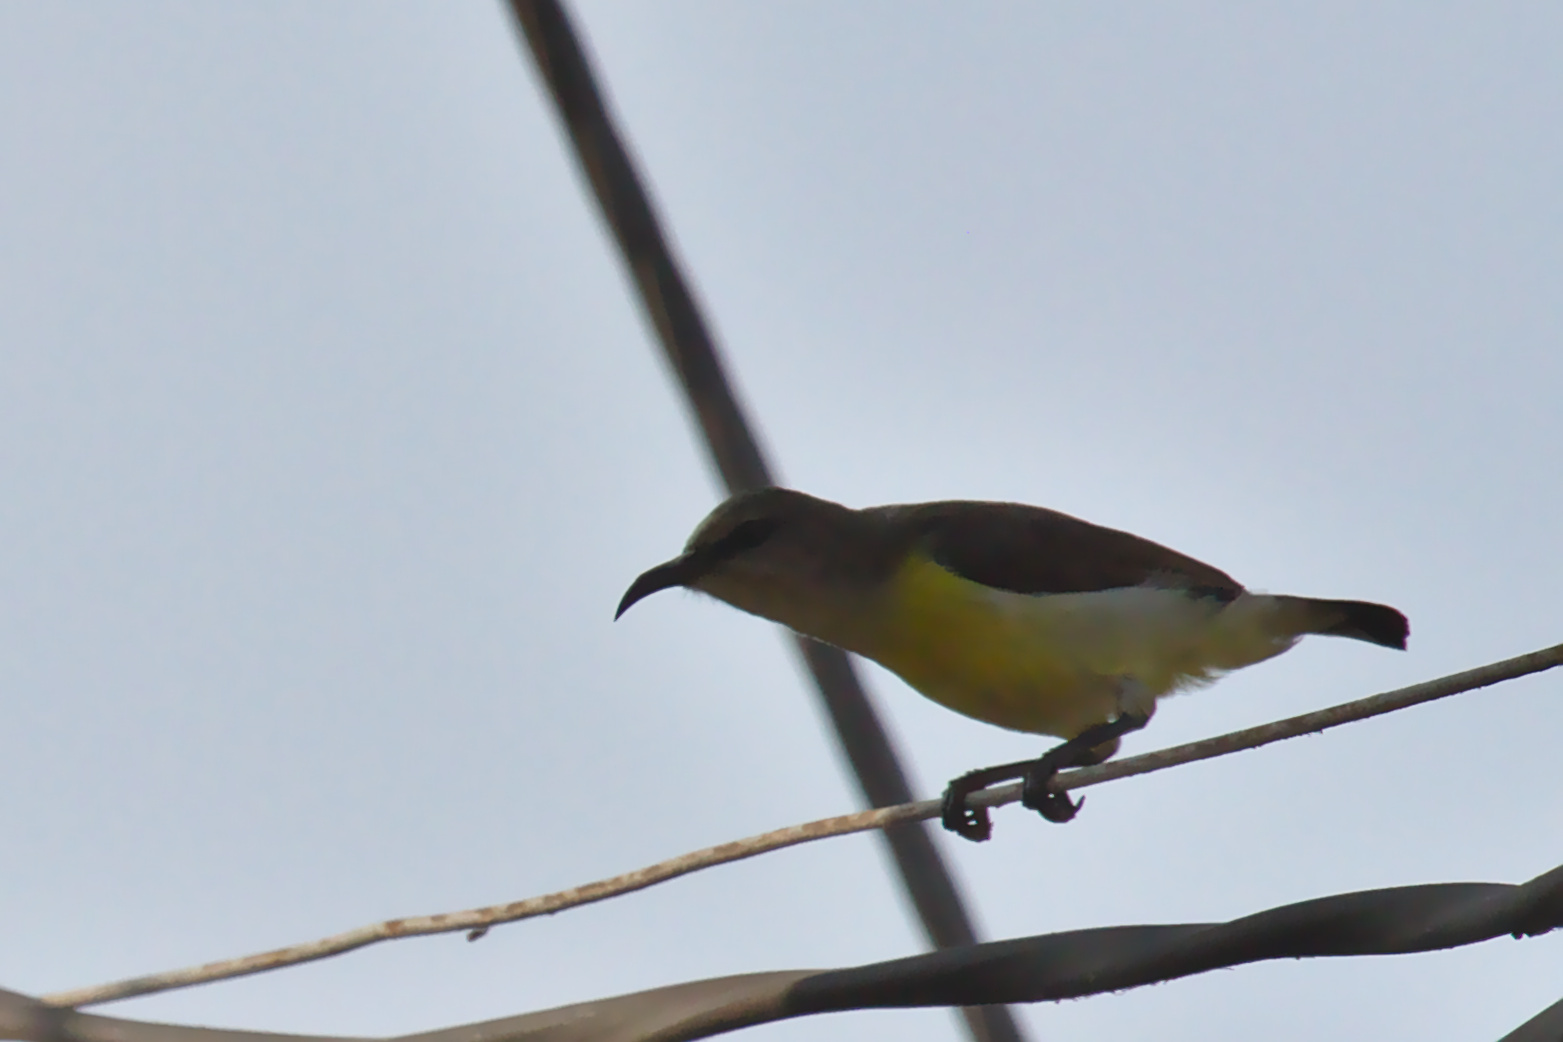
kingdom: Animalia
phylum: Chordata
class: Aves
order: Passeriformes
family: Nectariniidae
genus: Leptocoma
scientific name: Leptocoma zeylonica
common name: Purple-rumped sunbird
